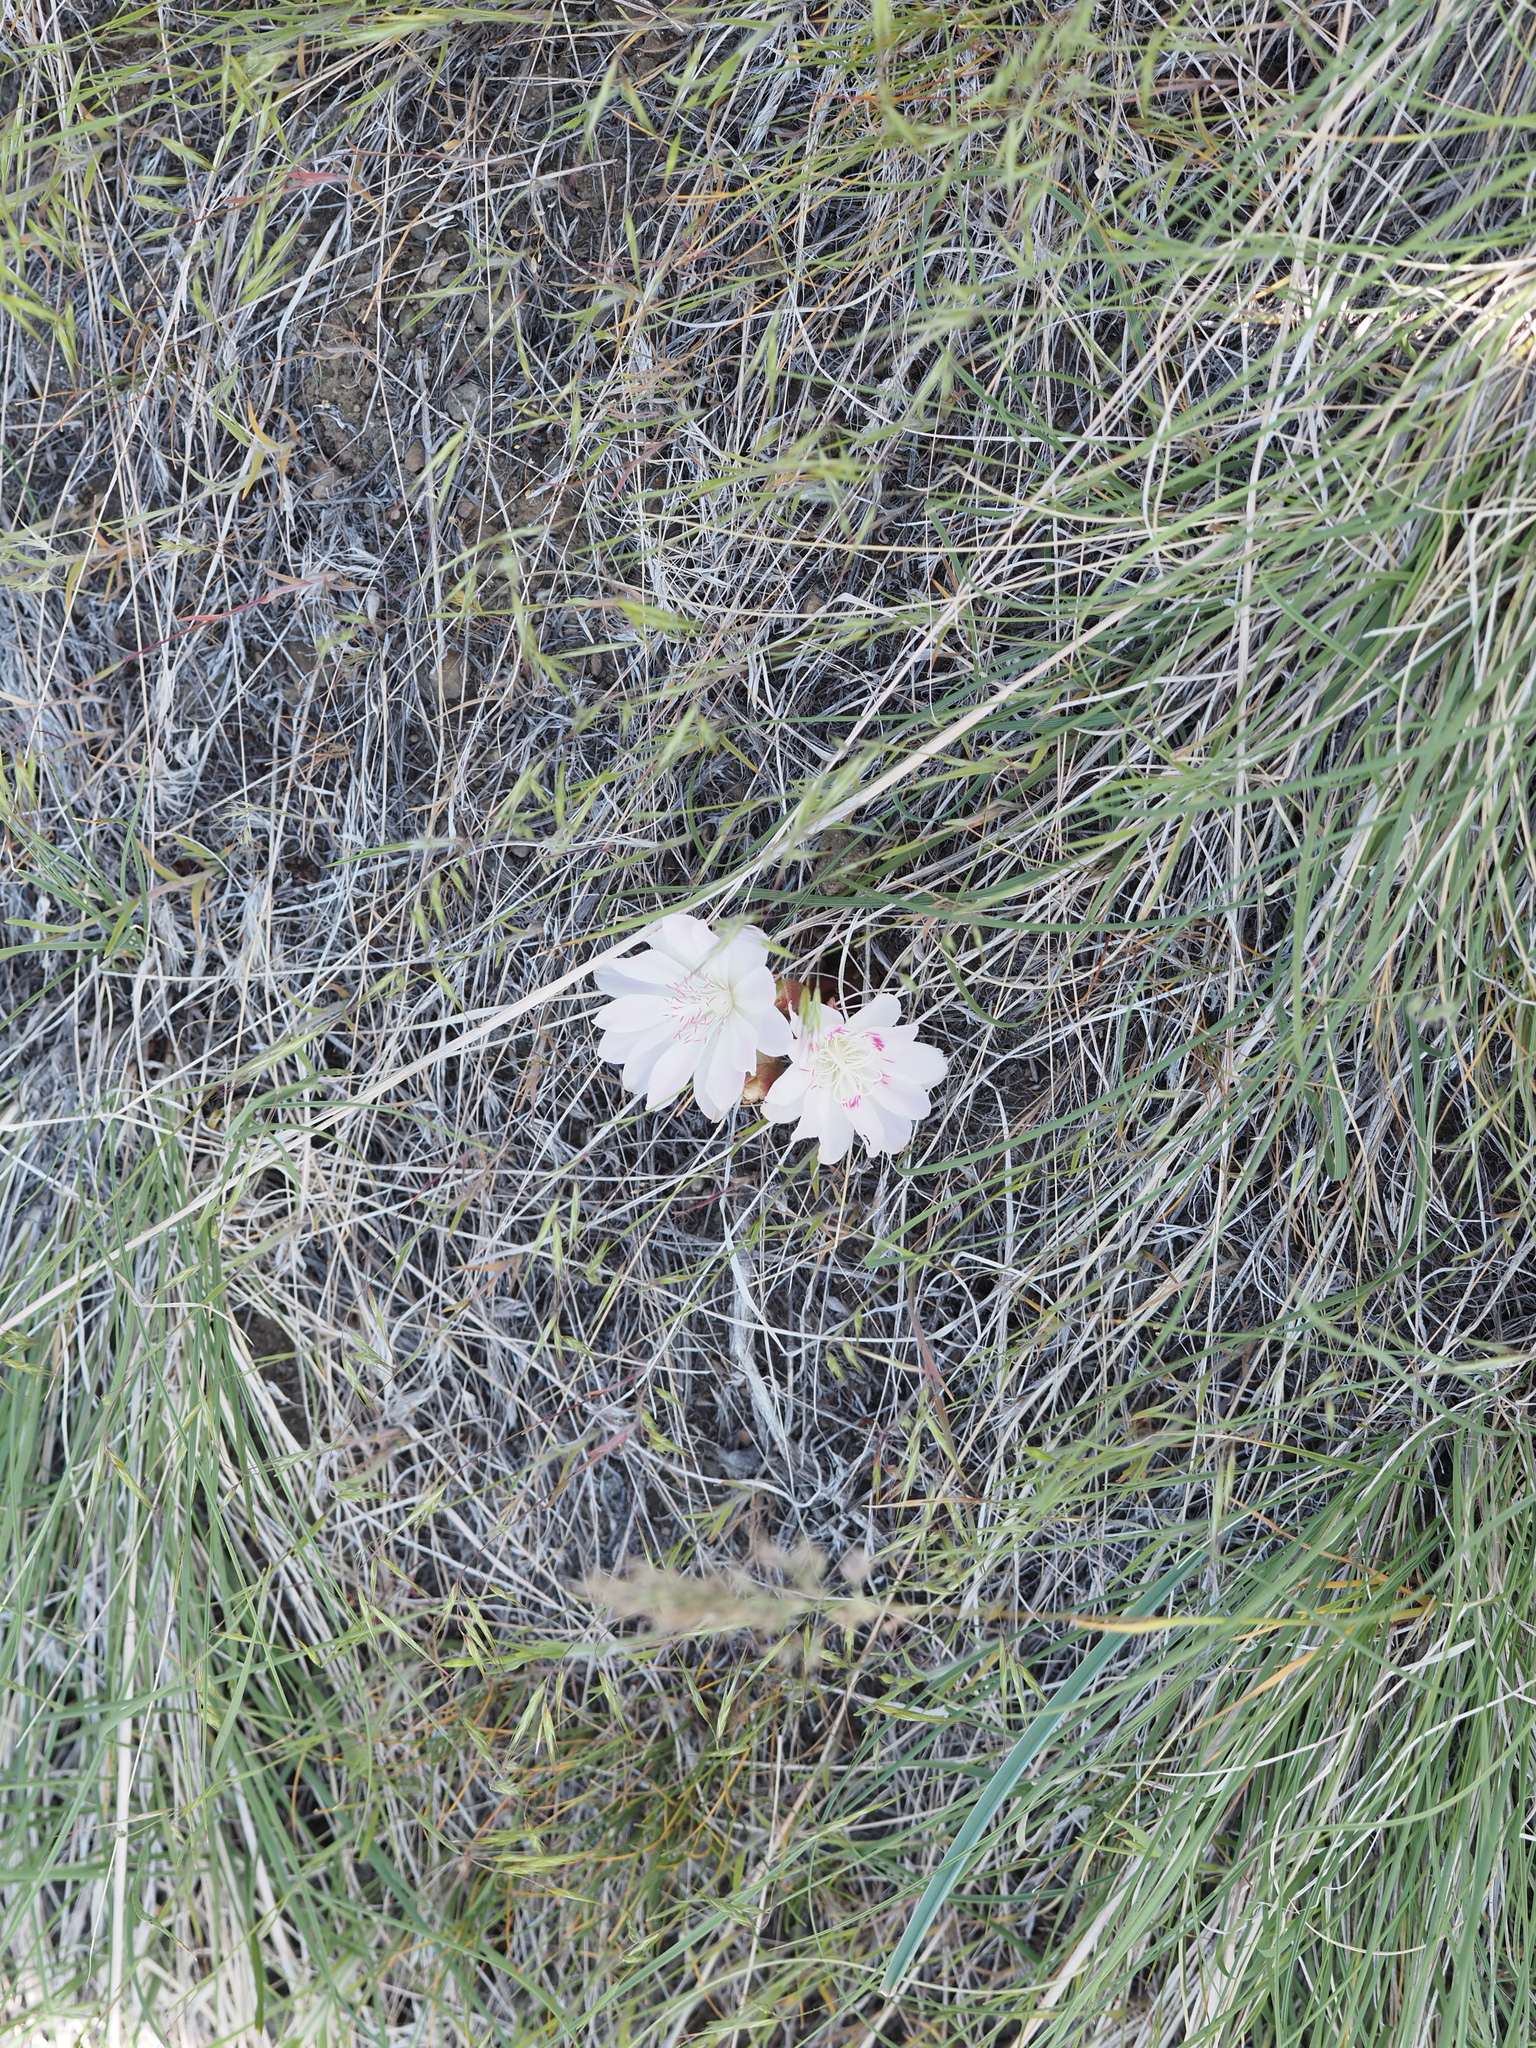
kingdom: Plantae
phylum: Tracheophyta
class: Magnoliopsida
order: Caryophyllales
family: Montiaceae
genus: Lewisia
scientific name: Lewisia rediviva
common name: Bitter-root
